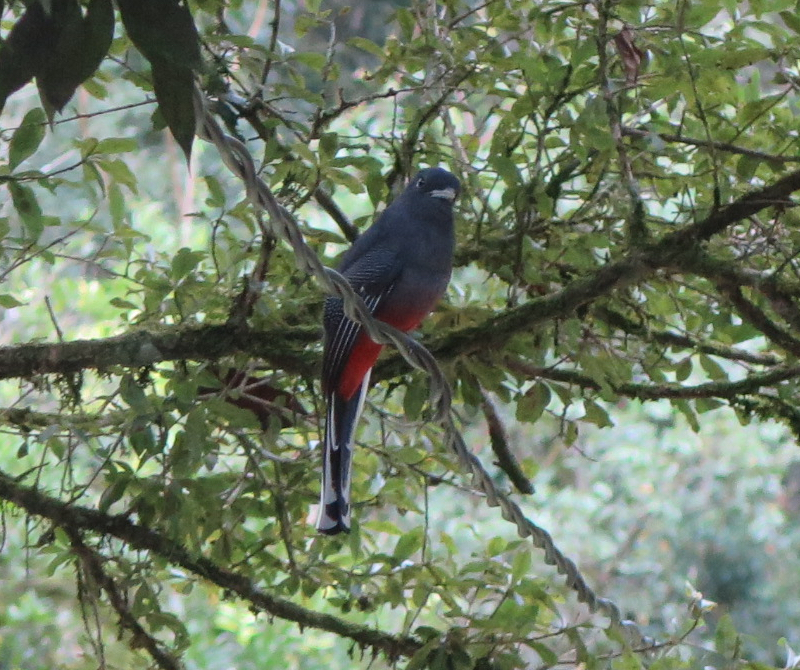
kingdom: Animalia
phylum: Chordata
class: Aves
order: Trogoniformes
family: Trogonidae
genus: Trogon
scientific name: Trogon surrucura
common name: Surucua trogon
